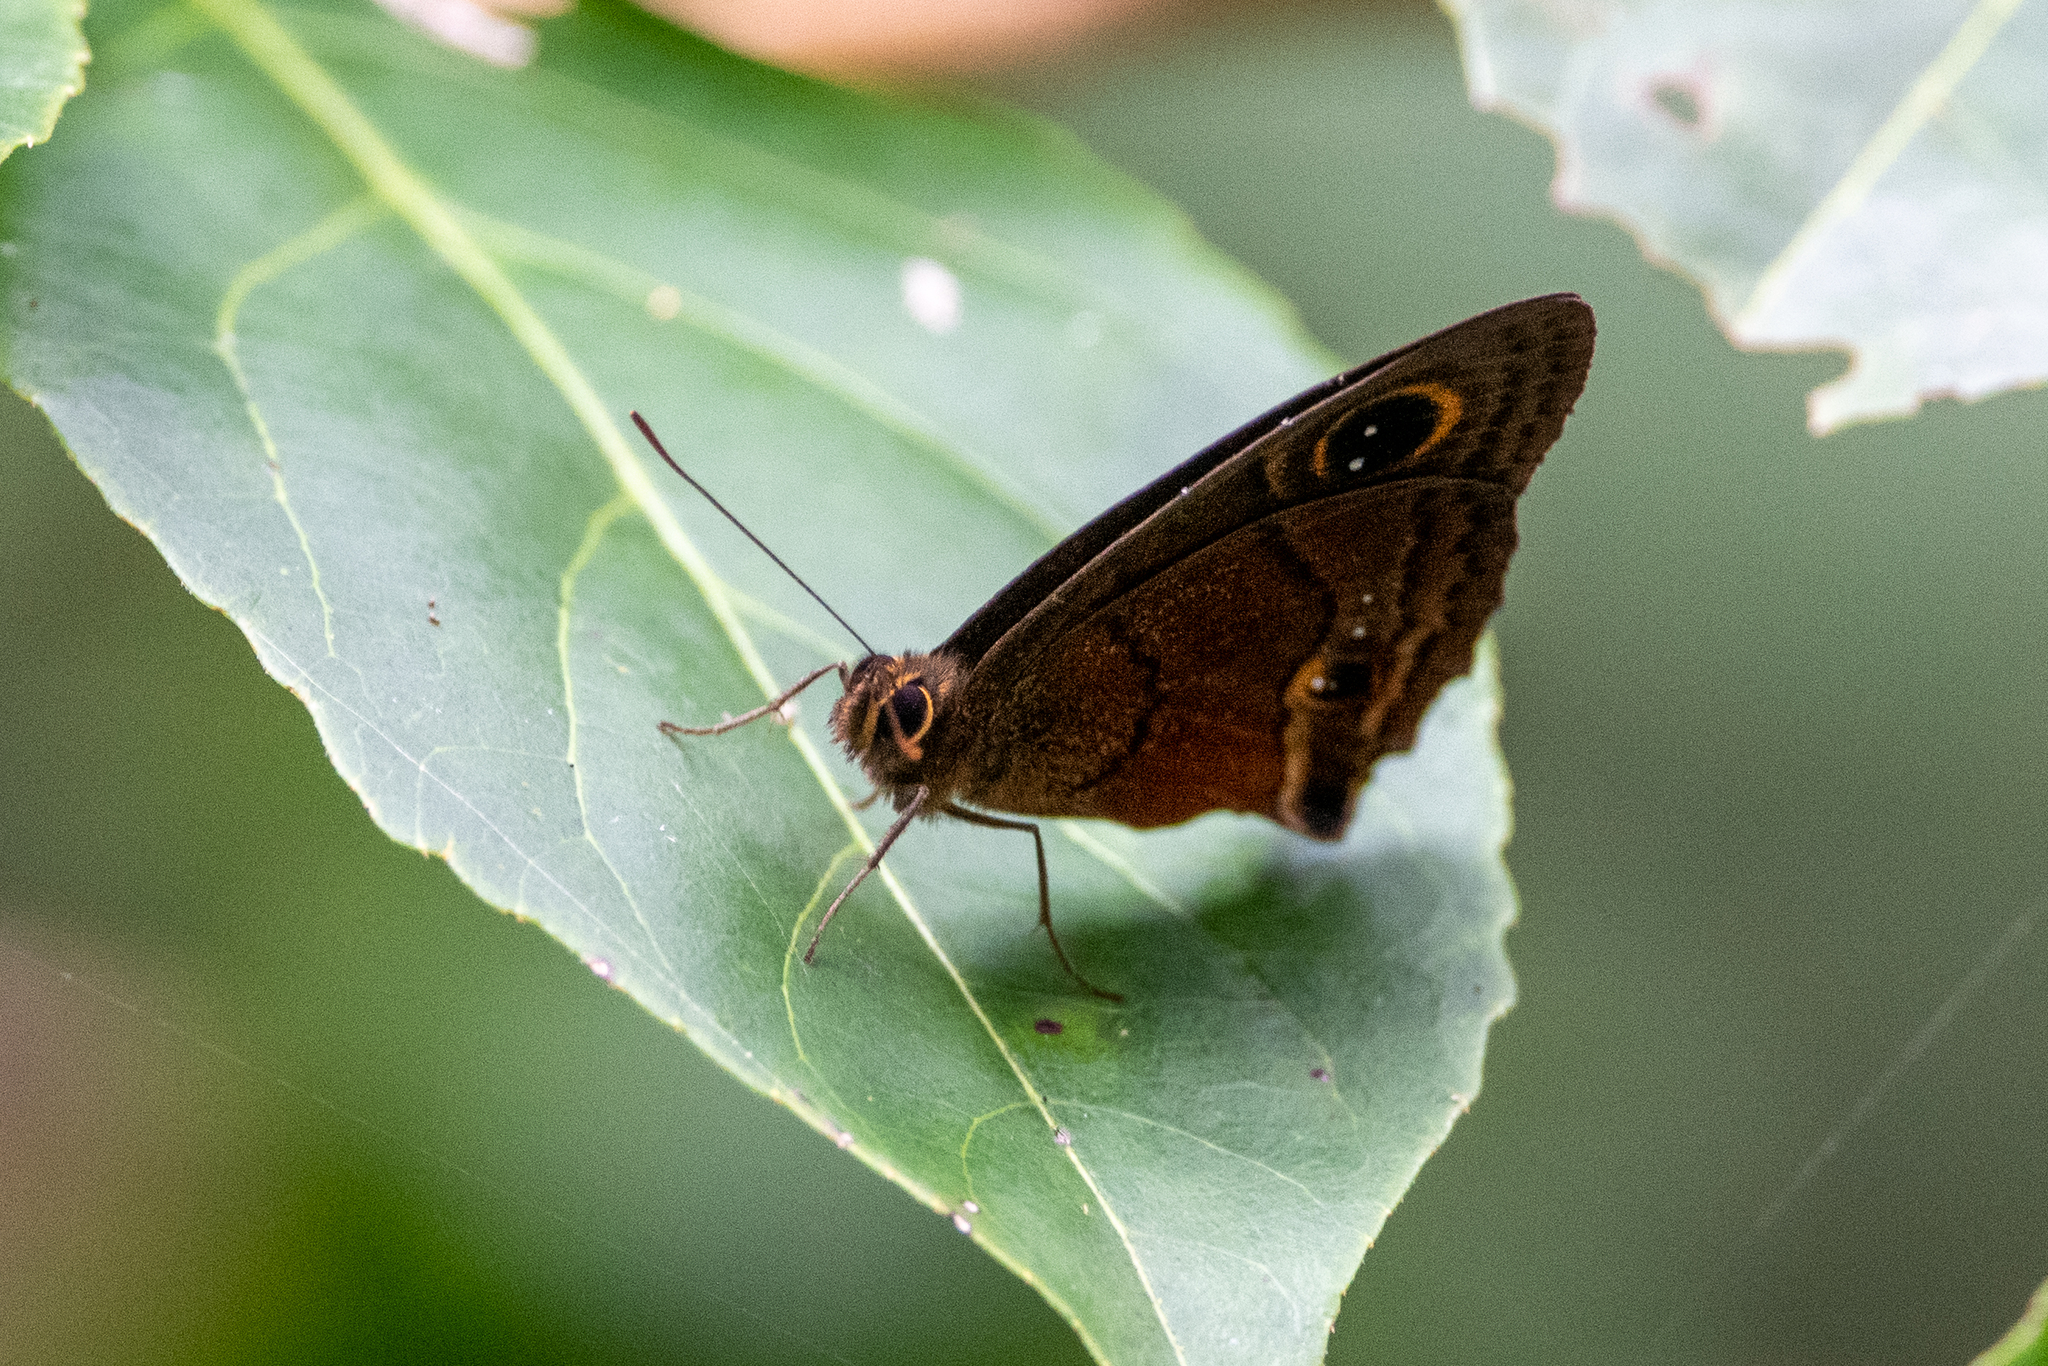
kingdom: Animalia
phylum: Arthropoda
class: Insecta
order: Lepidoptera
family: Nymphalidae
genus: Calisto
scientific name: Calisto nubila
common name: Puerto rican calisto
